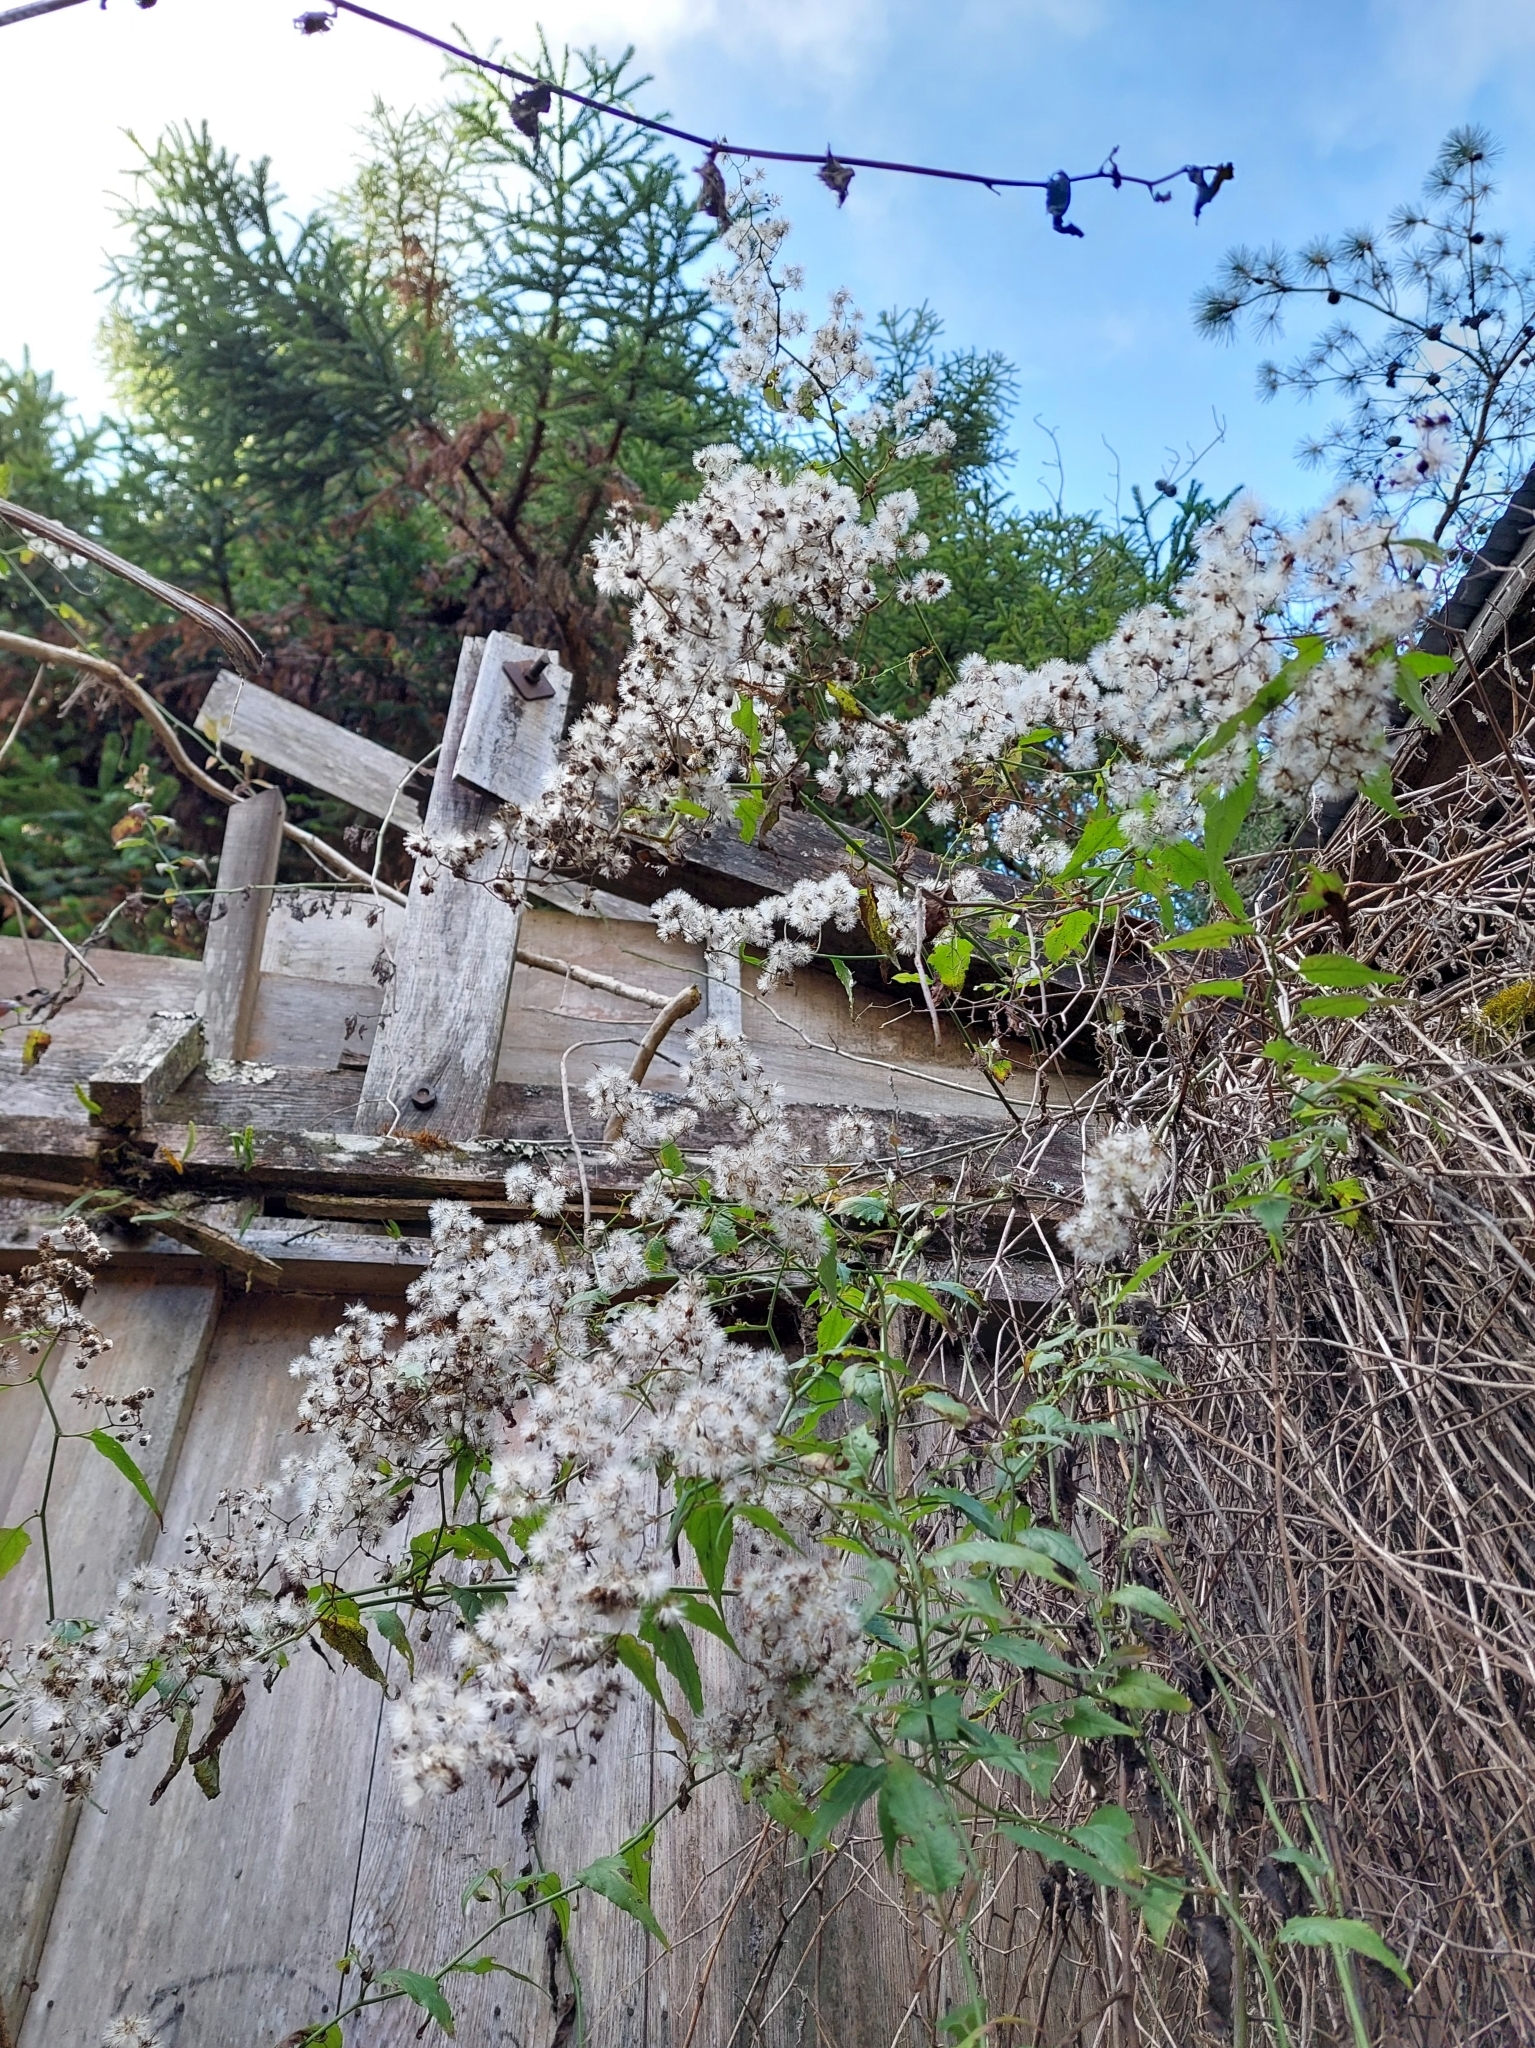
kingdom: Plantae
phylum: Tracheophyta
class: Magnoliopsida
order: Asterales
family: Asteraceae
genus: Senecio
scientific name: Senecio scandens
